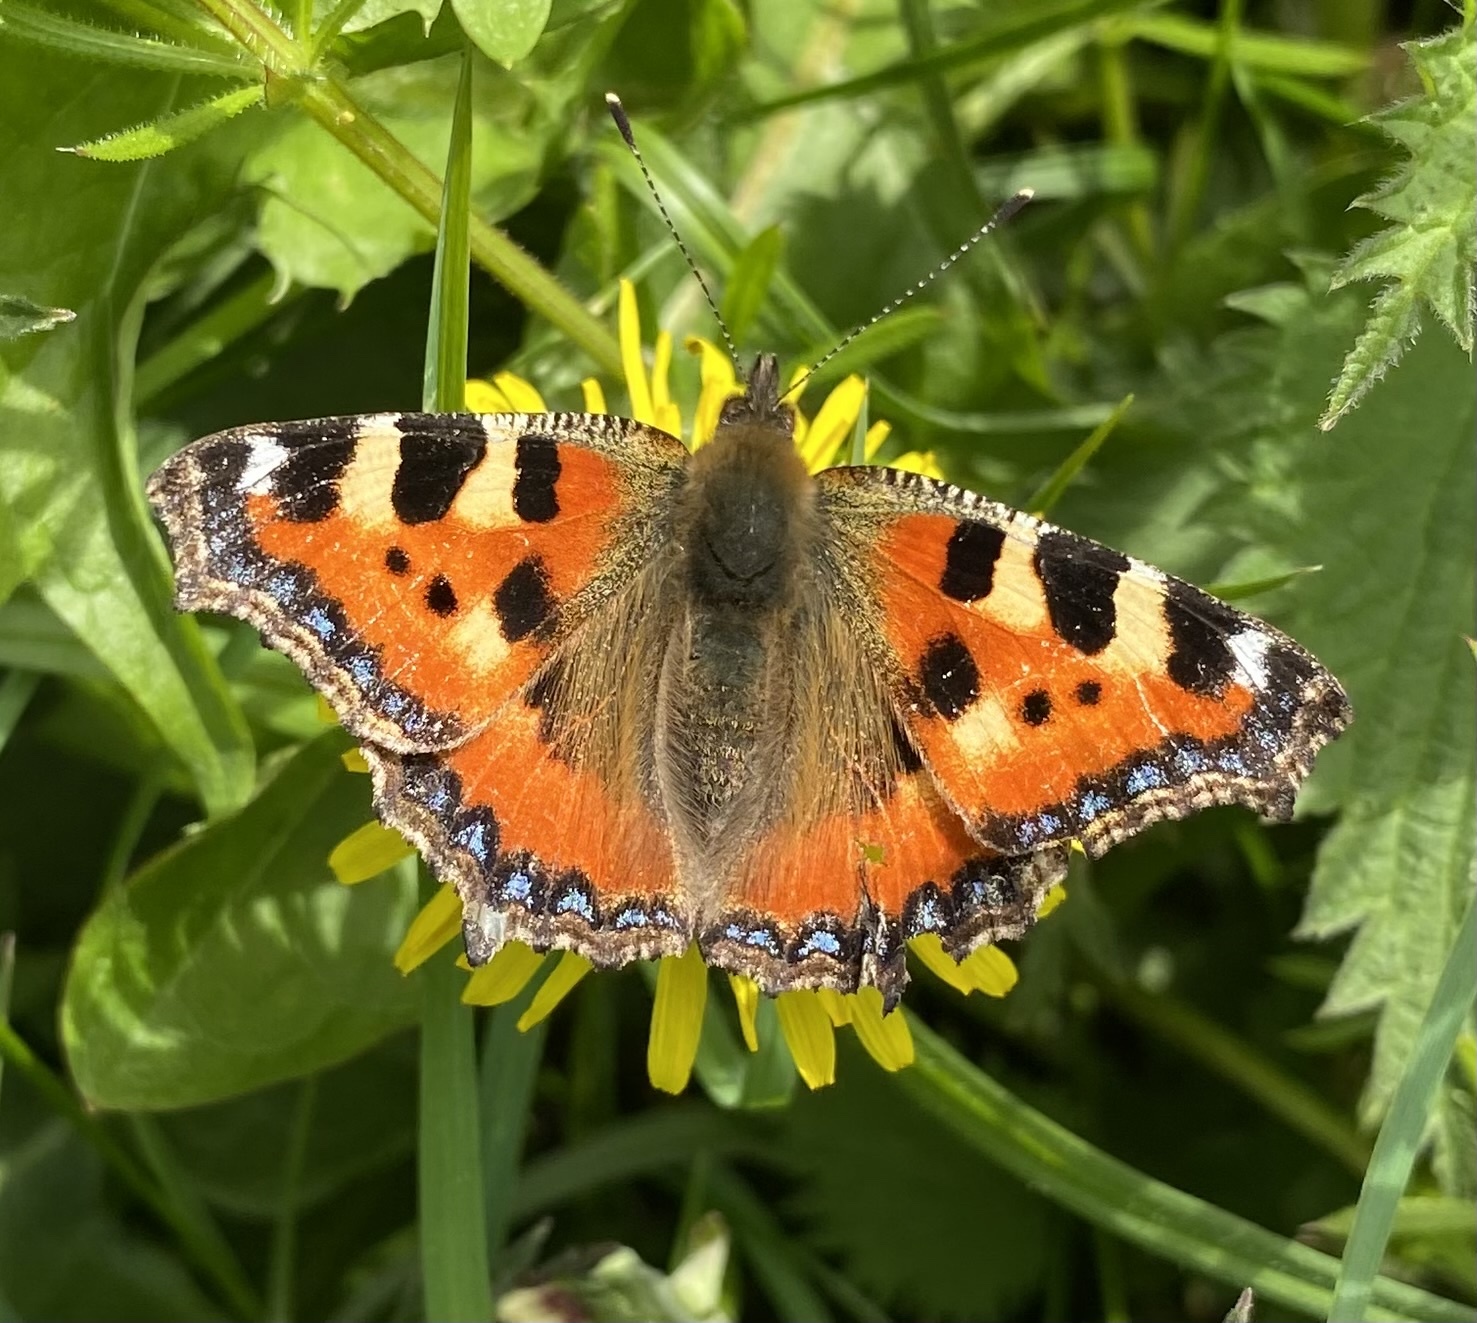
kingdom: Animalia
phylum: Arthropoda
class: Insecta
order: Lepidoptera
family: Nymphalidae
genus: Aglais
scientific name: Aglais urticae
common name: Small tortoiseshell
